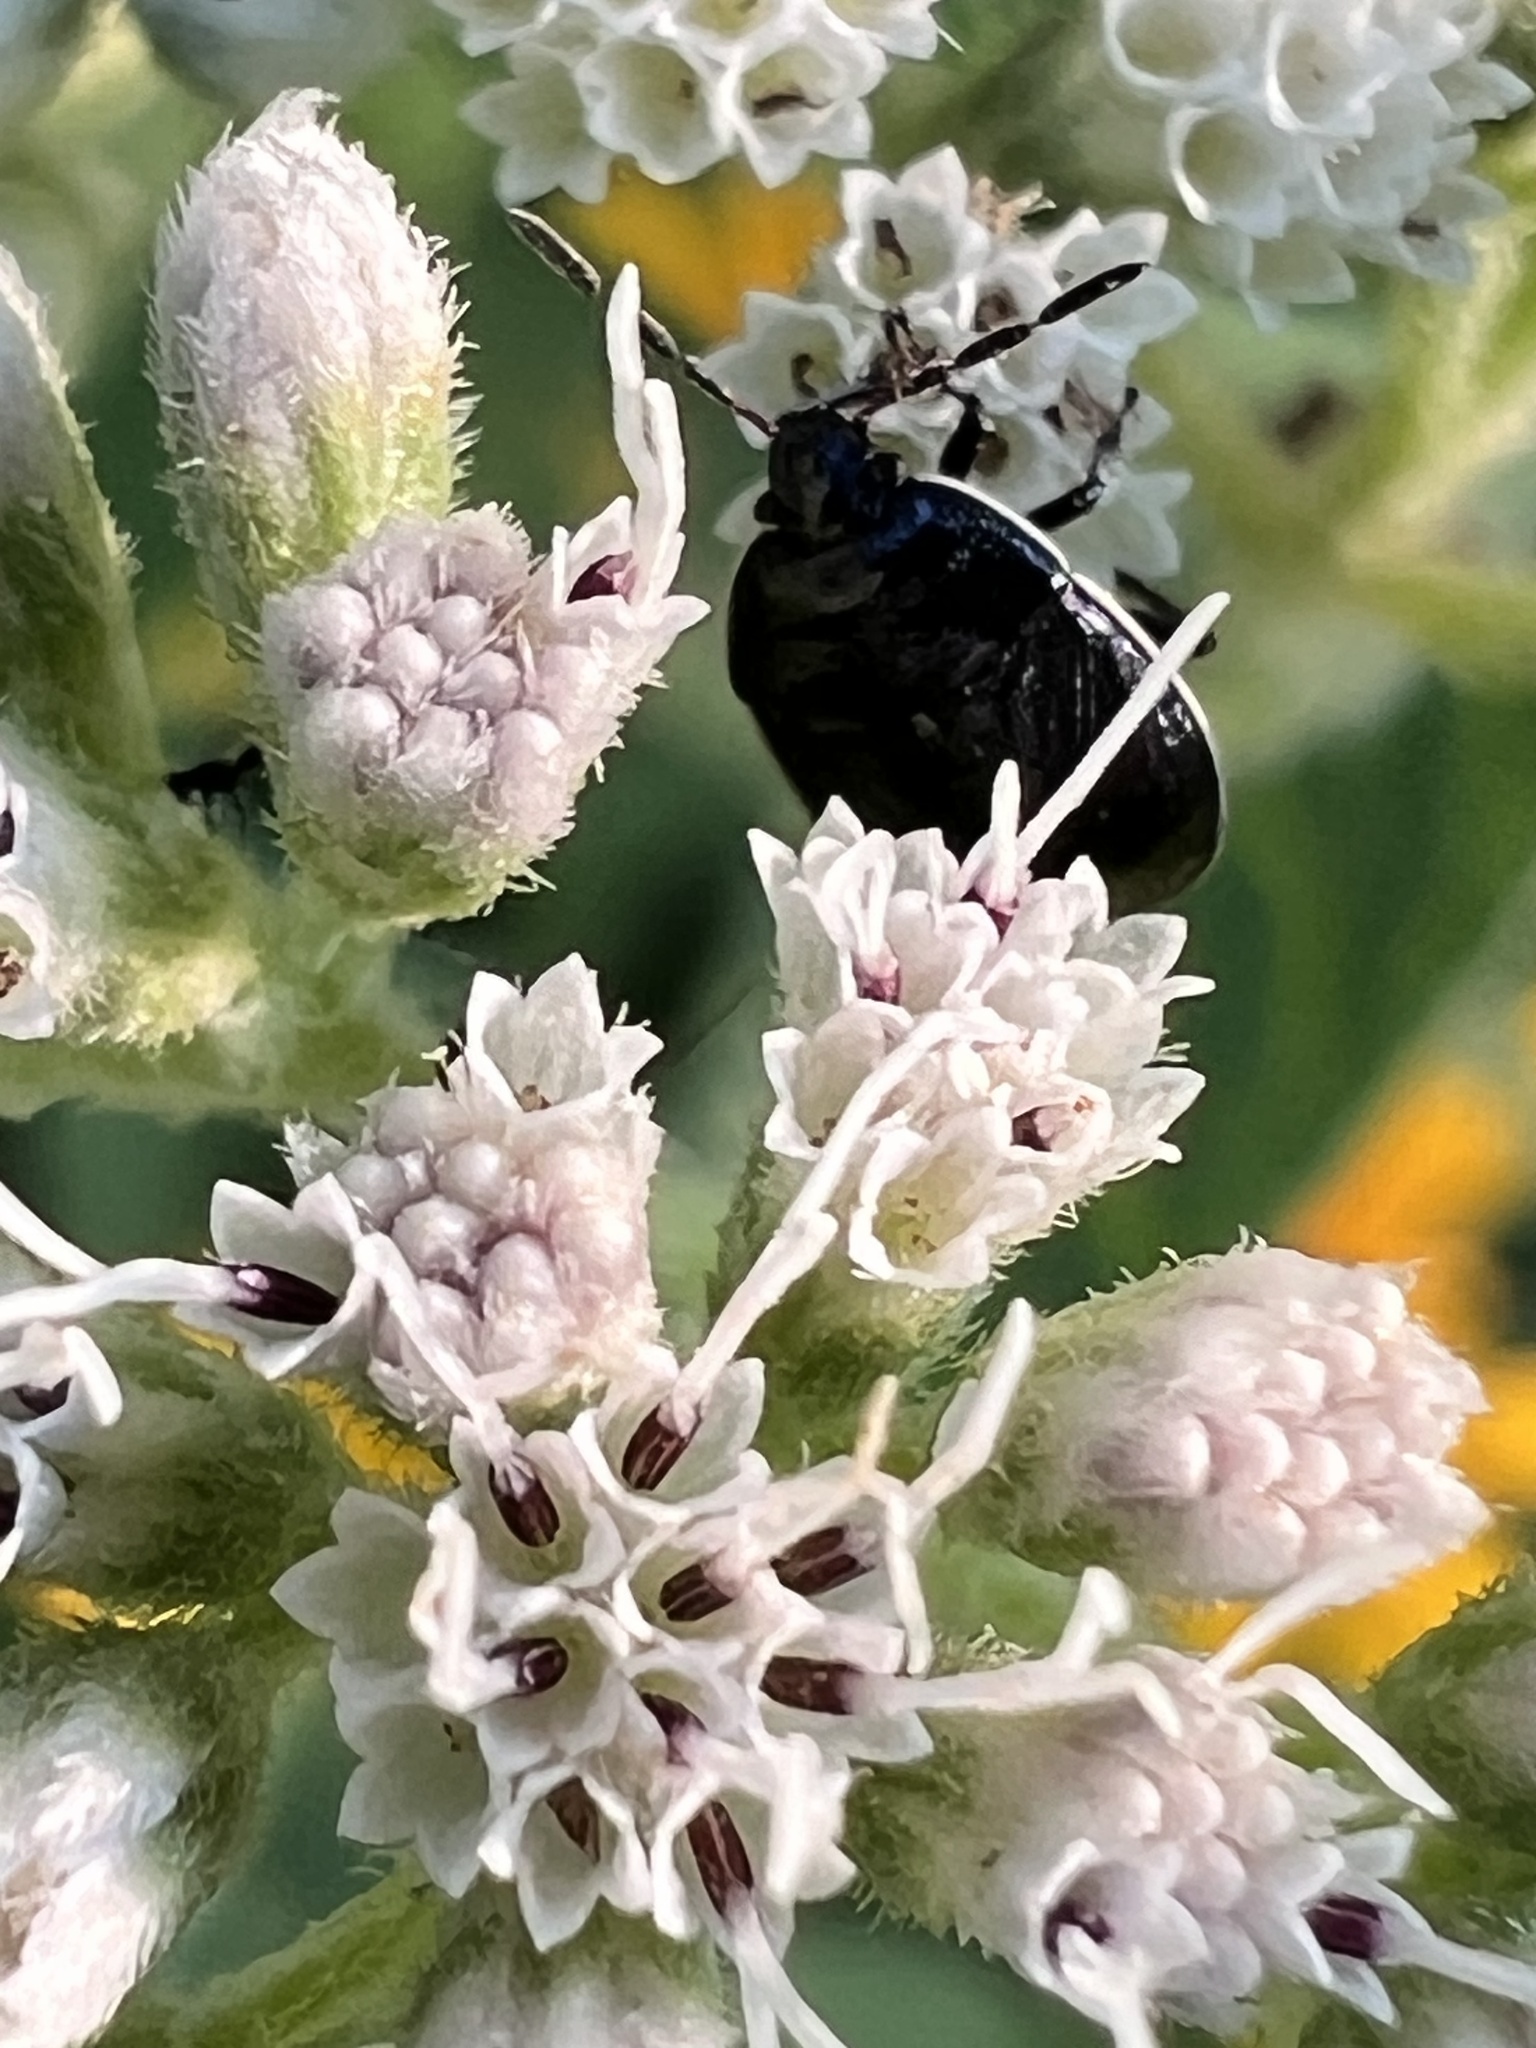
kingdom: Animalia
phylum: Arthropoda
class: Insecta
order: Hemiptera
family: Cydnidae
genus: Sehirus
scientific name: Sehirus cinctus
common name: White-margined burrower bug
